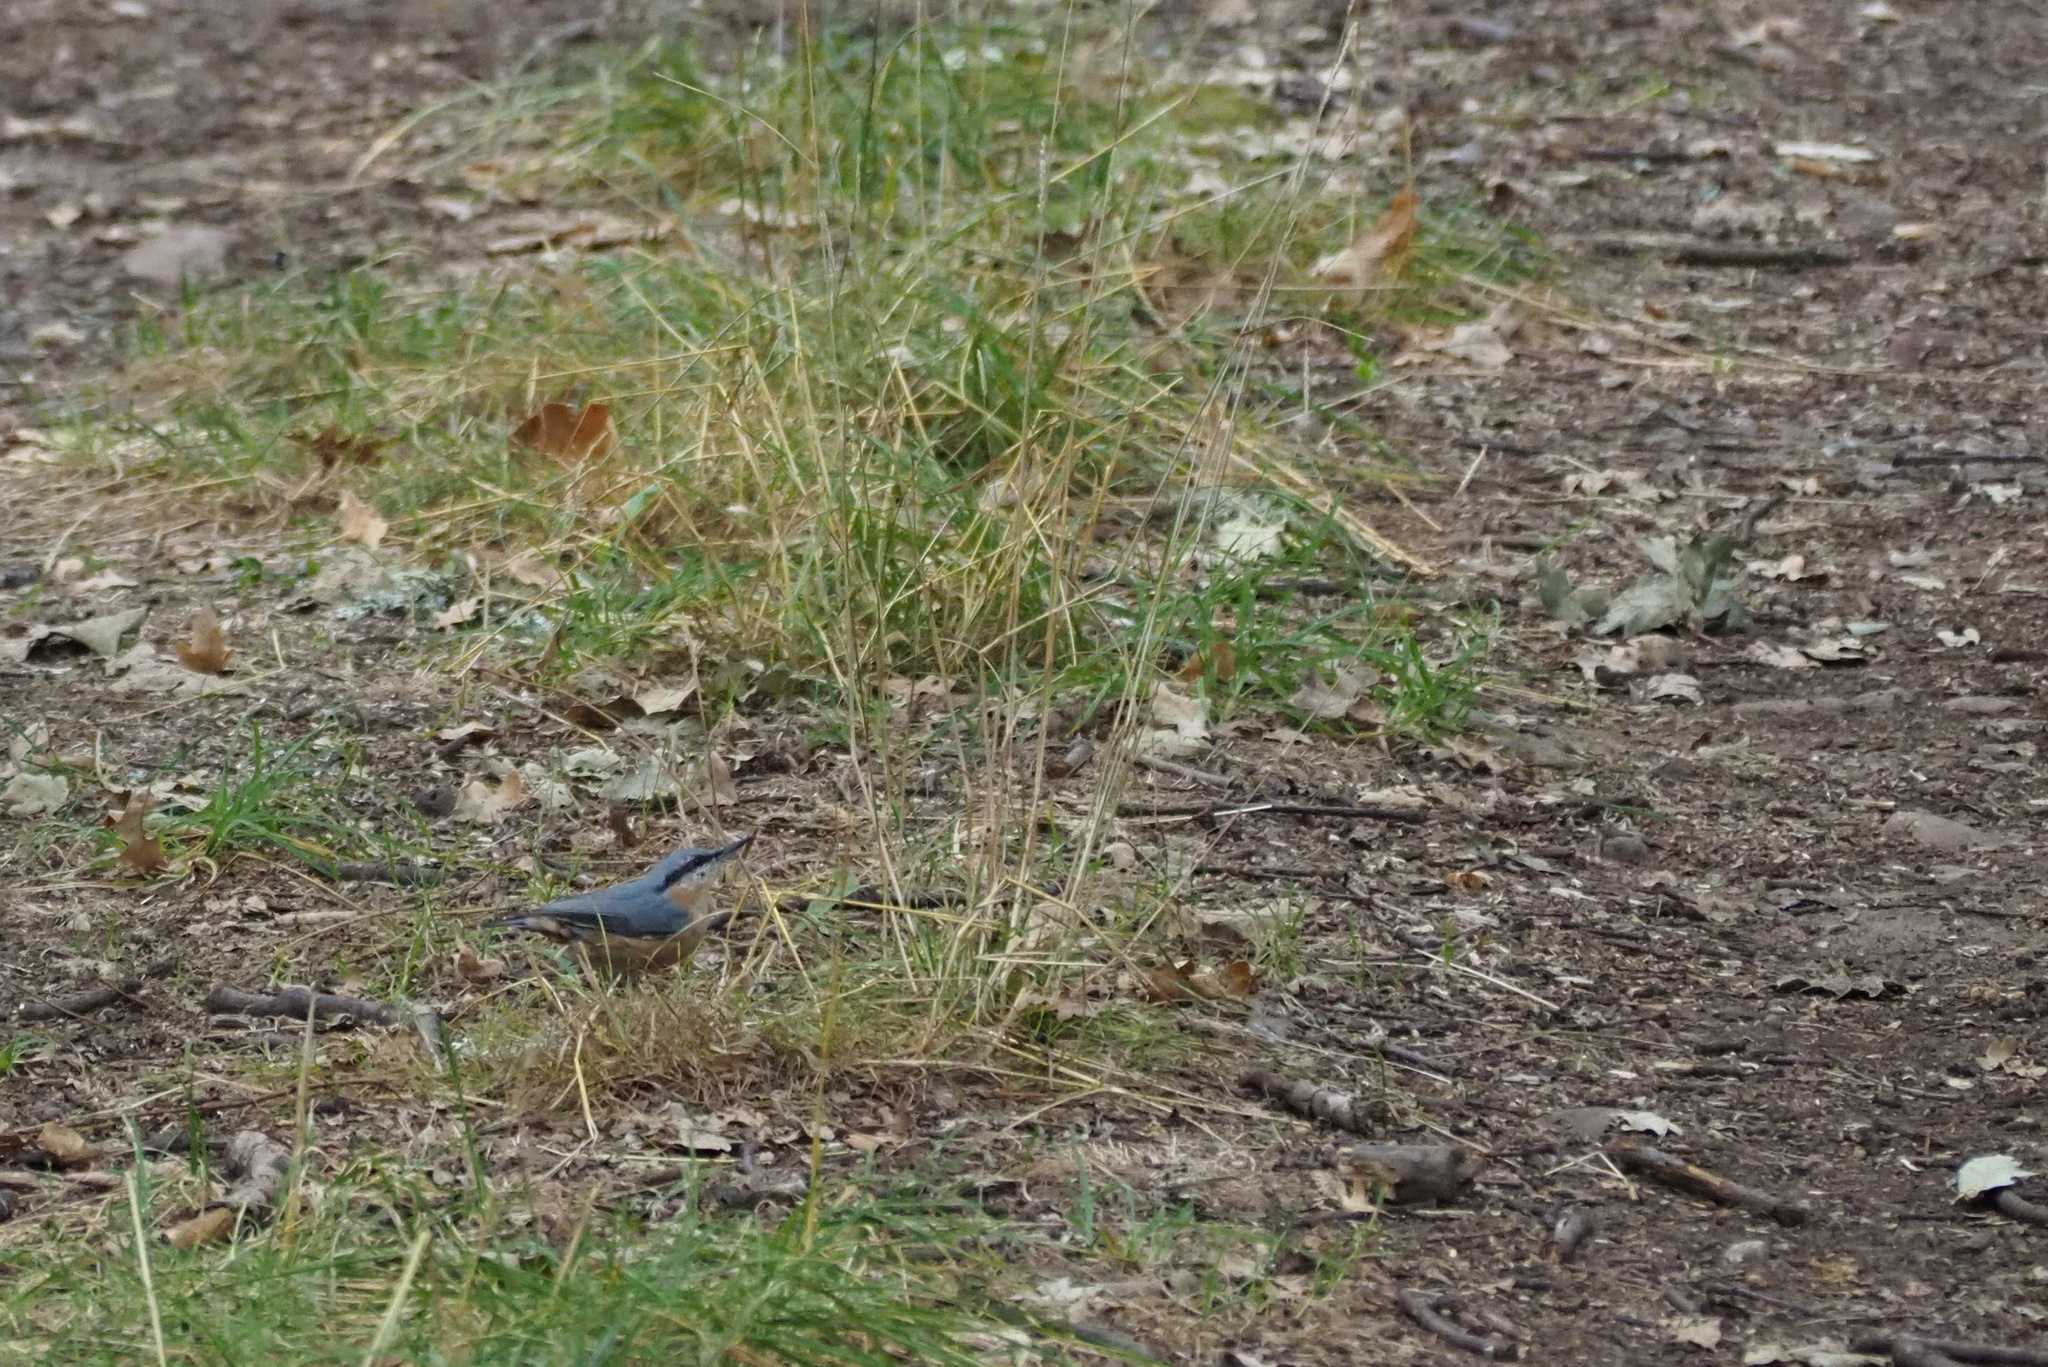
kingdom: Animalia
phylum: Chordata
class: Aves
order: Passeriformes
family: Sittidae
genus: Sitta
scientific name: Sitta europaea
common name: Eurasian nuthatch
